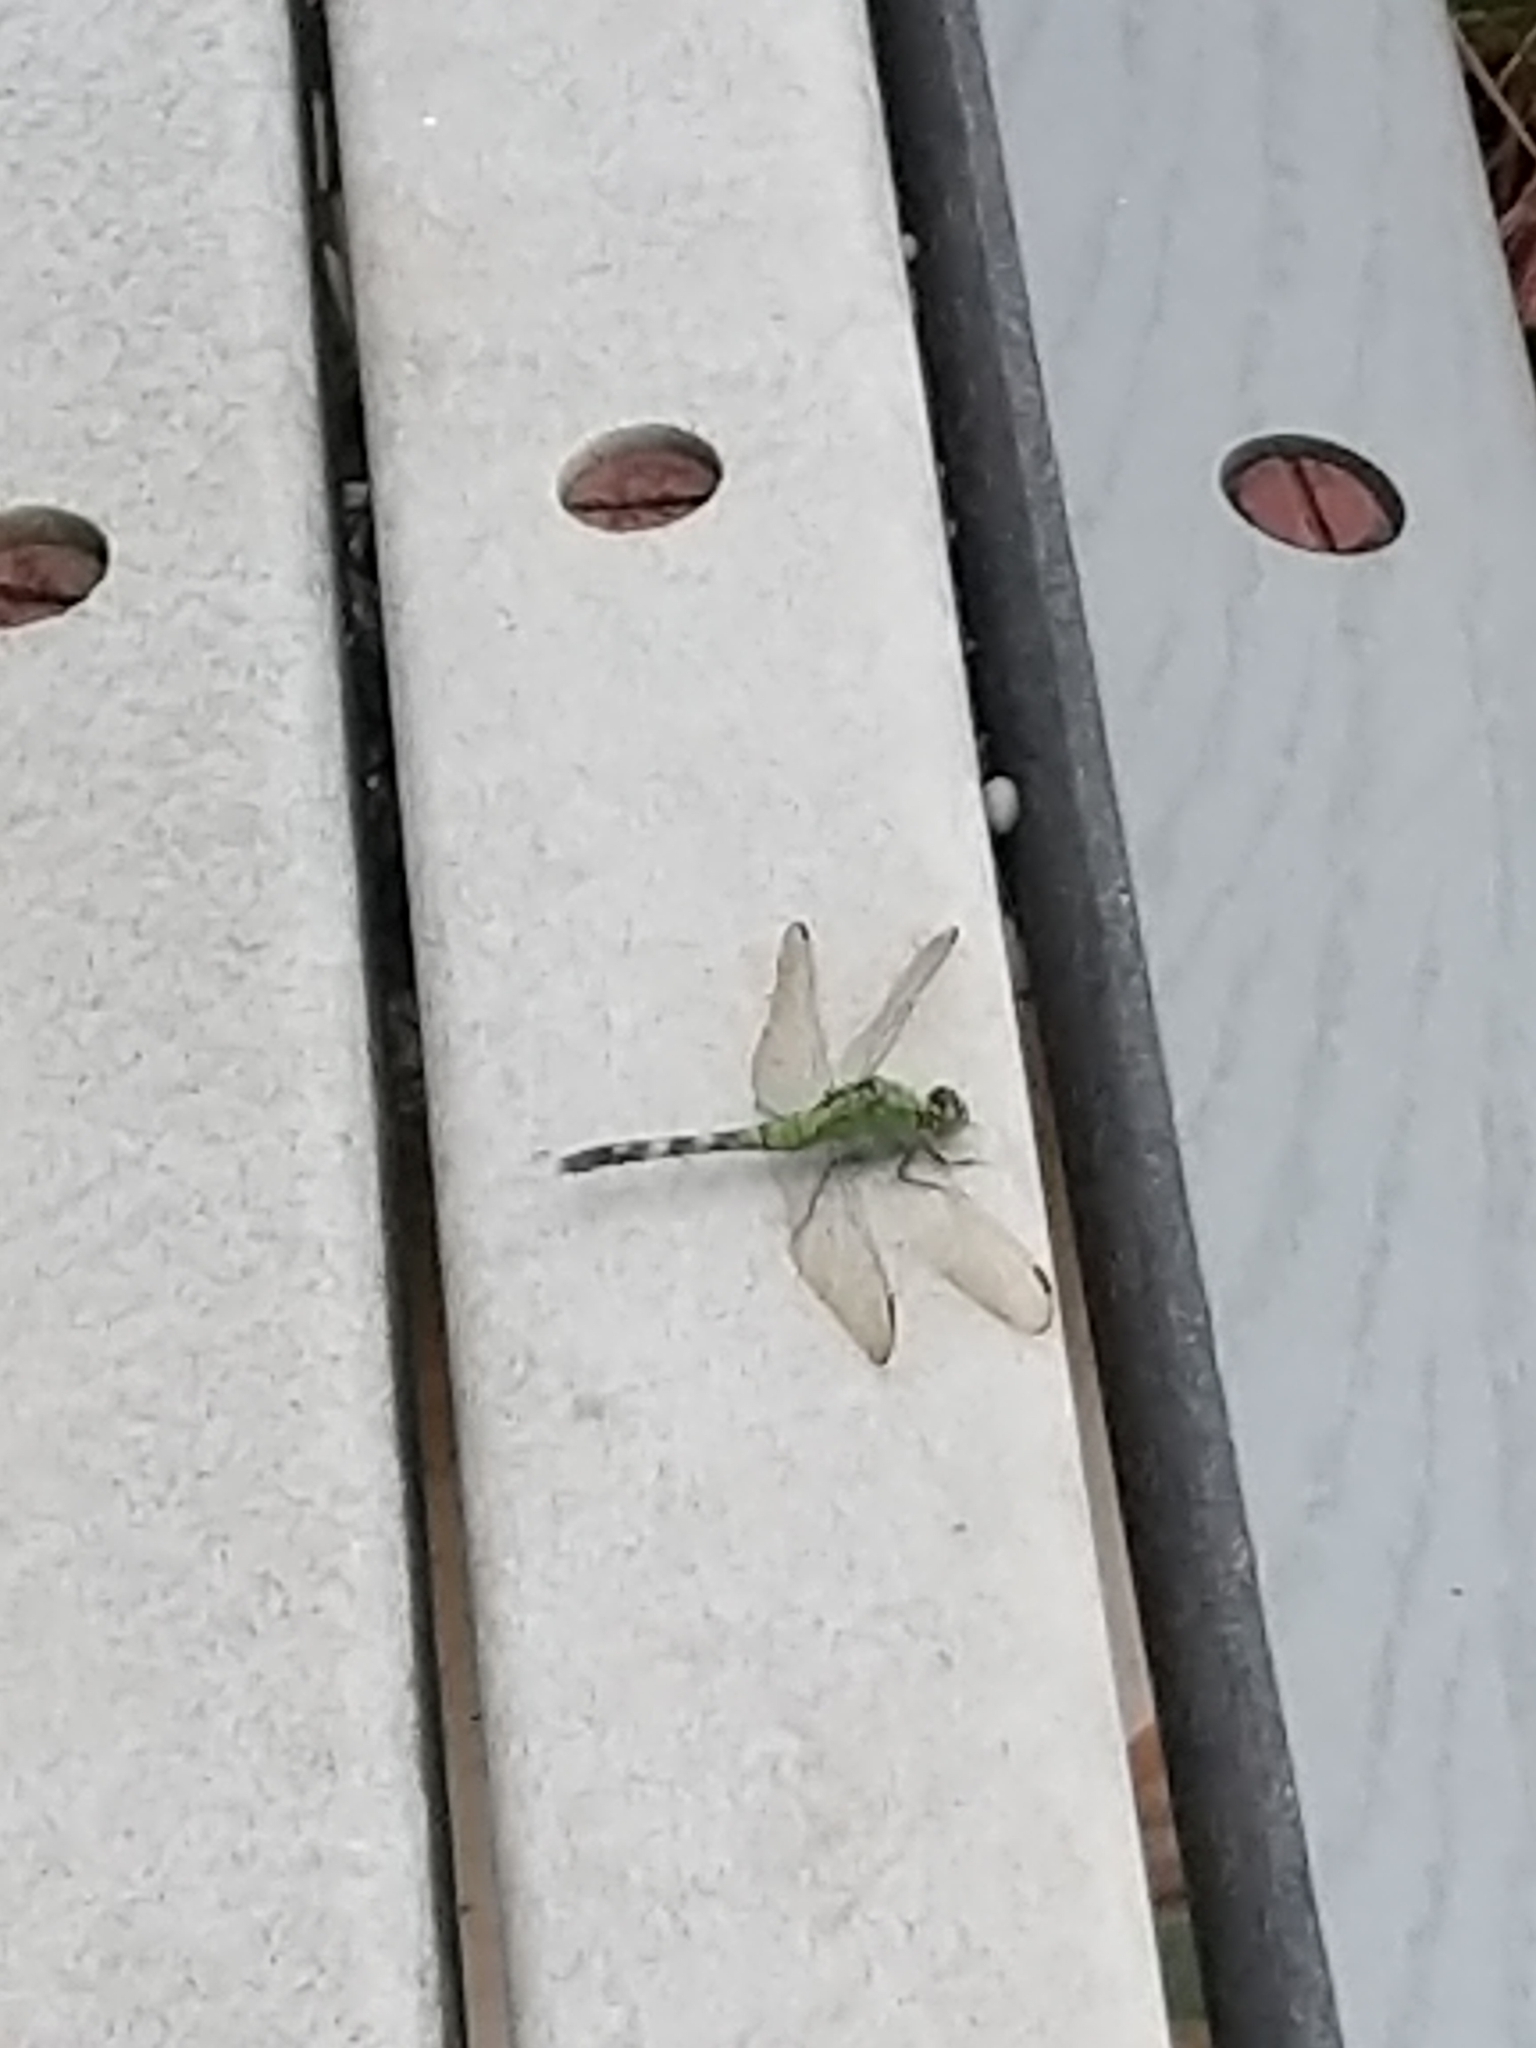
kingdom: Animalia
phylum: Arthropoda
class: Insecta
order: Odonata
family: Libellulidae
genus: Erythemis
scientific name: Erythemis simplicicollis
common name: Eastern pondhawk
